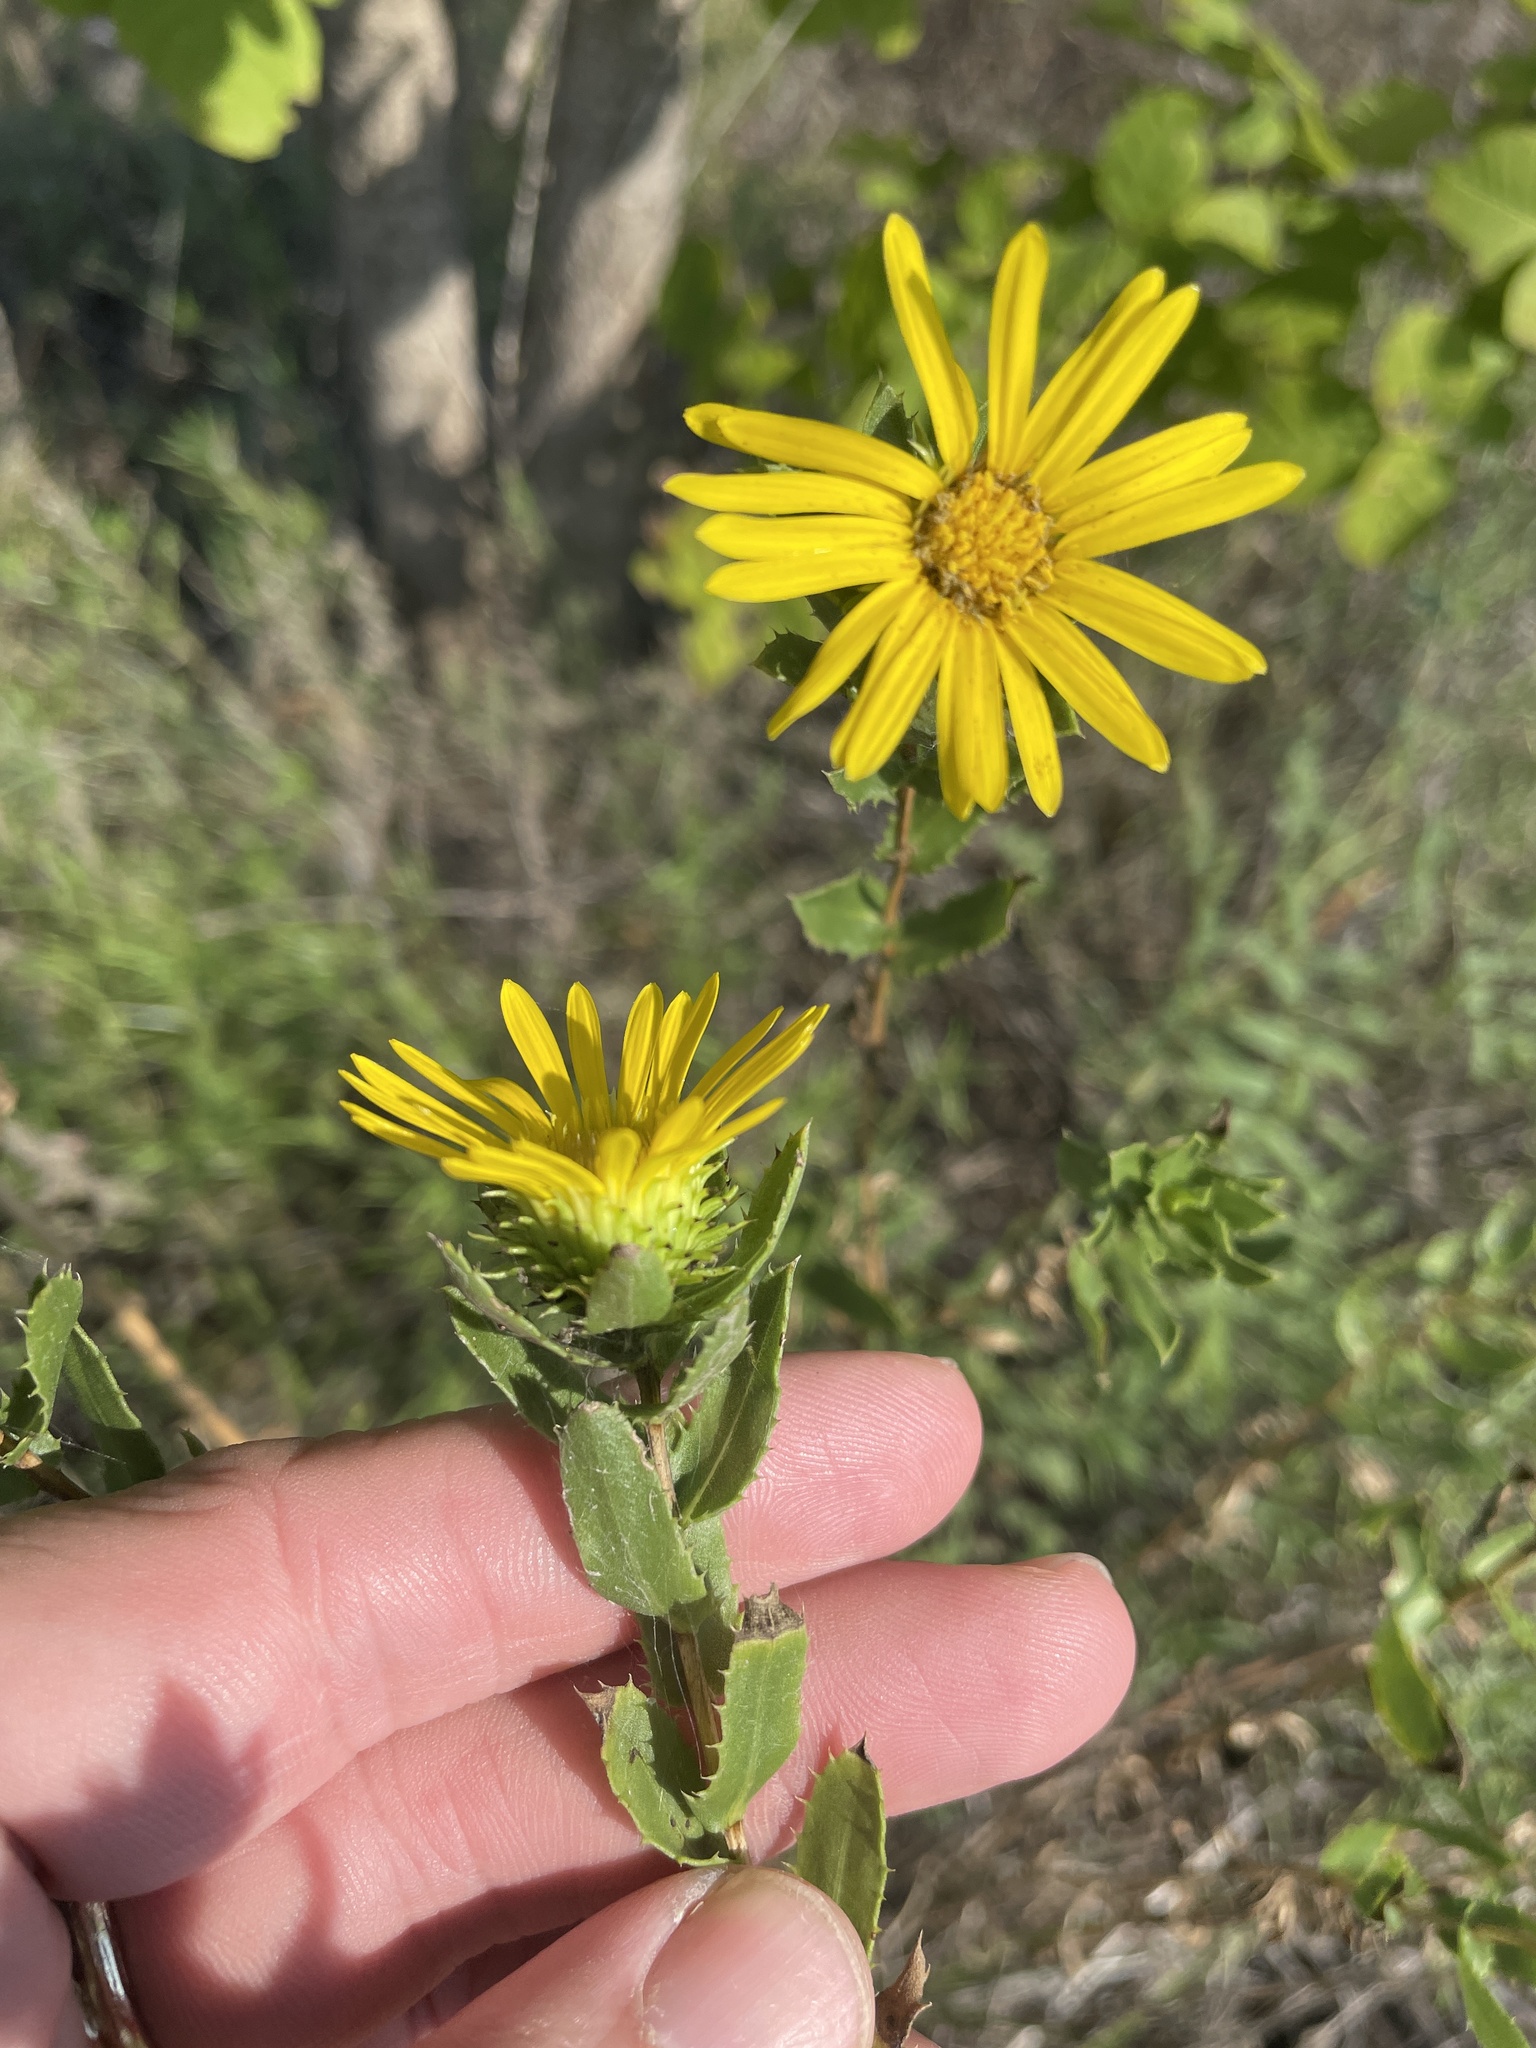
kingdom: Plantae
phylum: Tracheophyta
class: Magnoliopsida
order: Asterales
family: Asteraceae
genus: Grindelia
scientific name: Grindelia lanceolata
